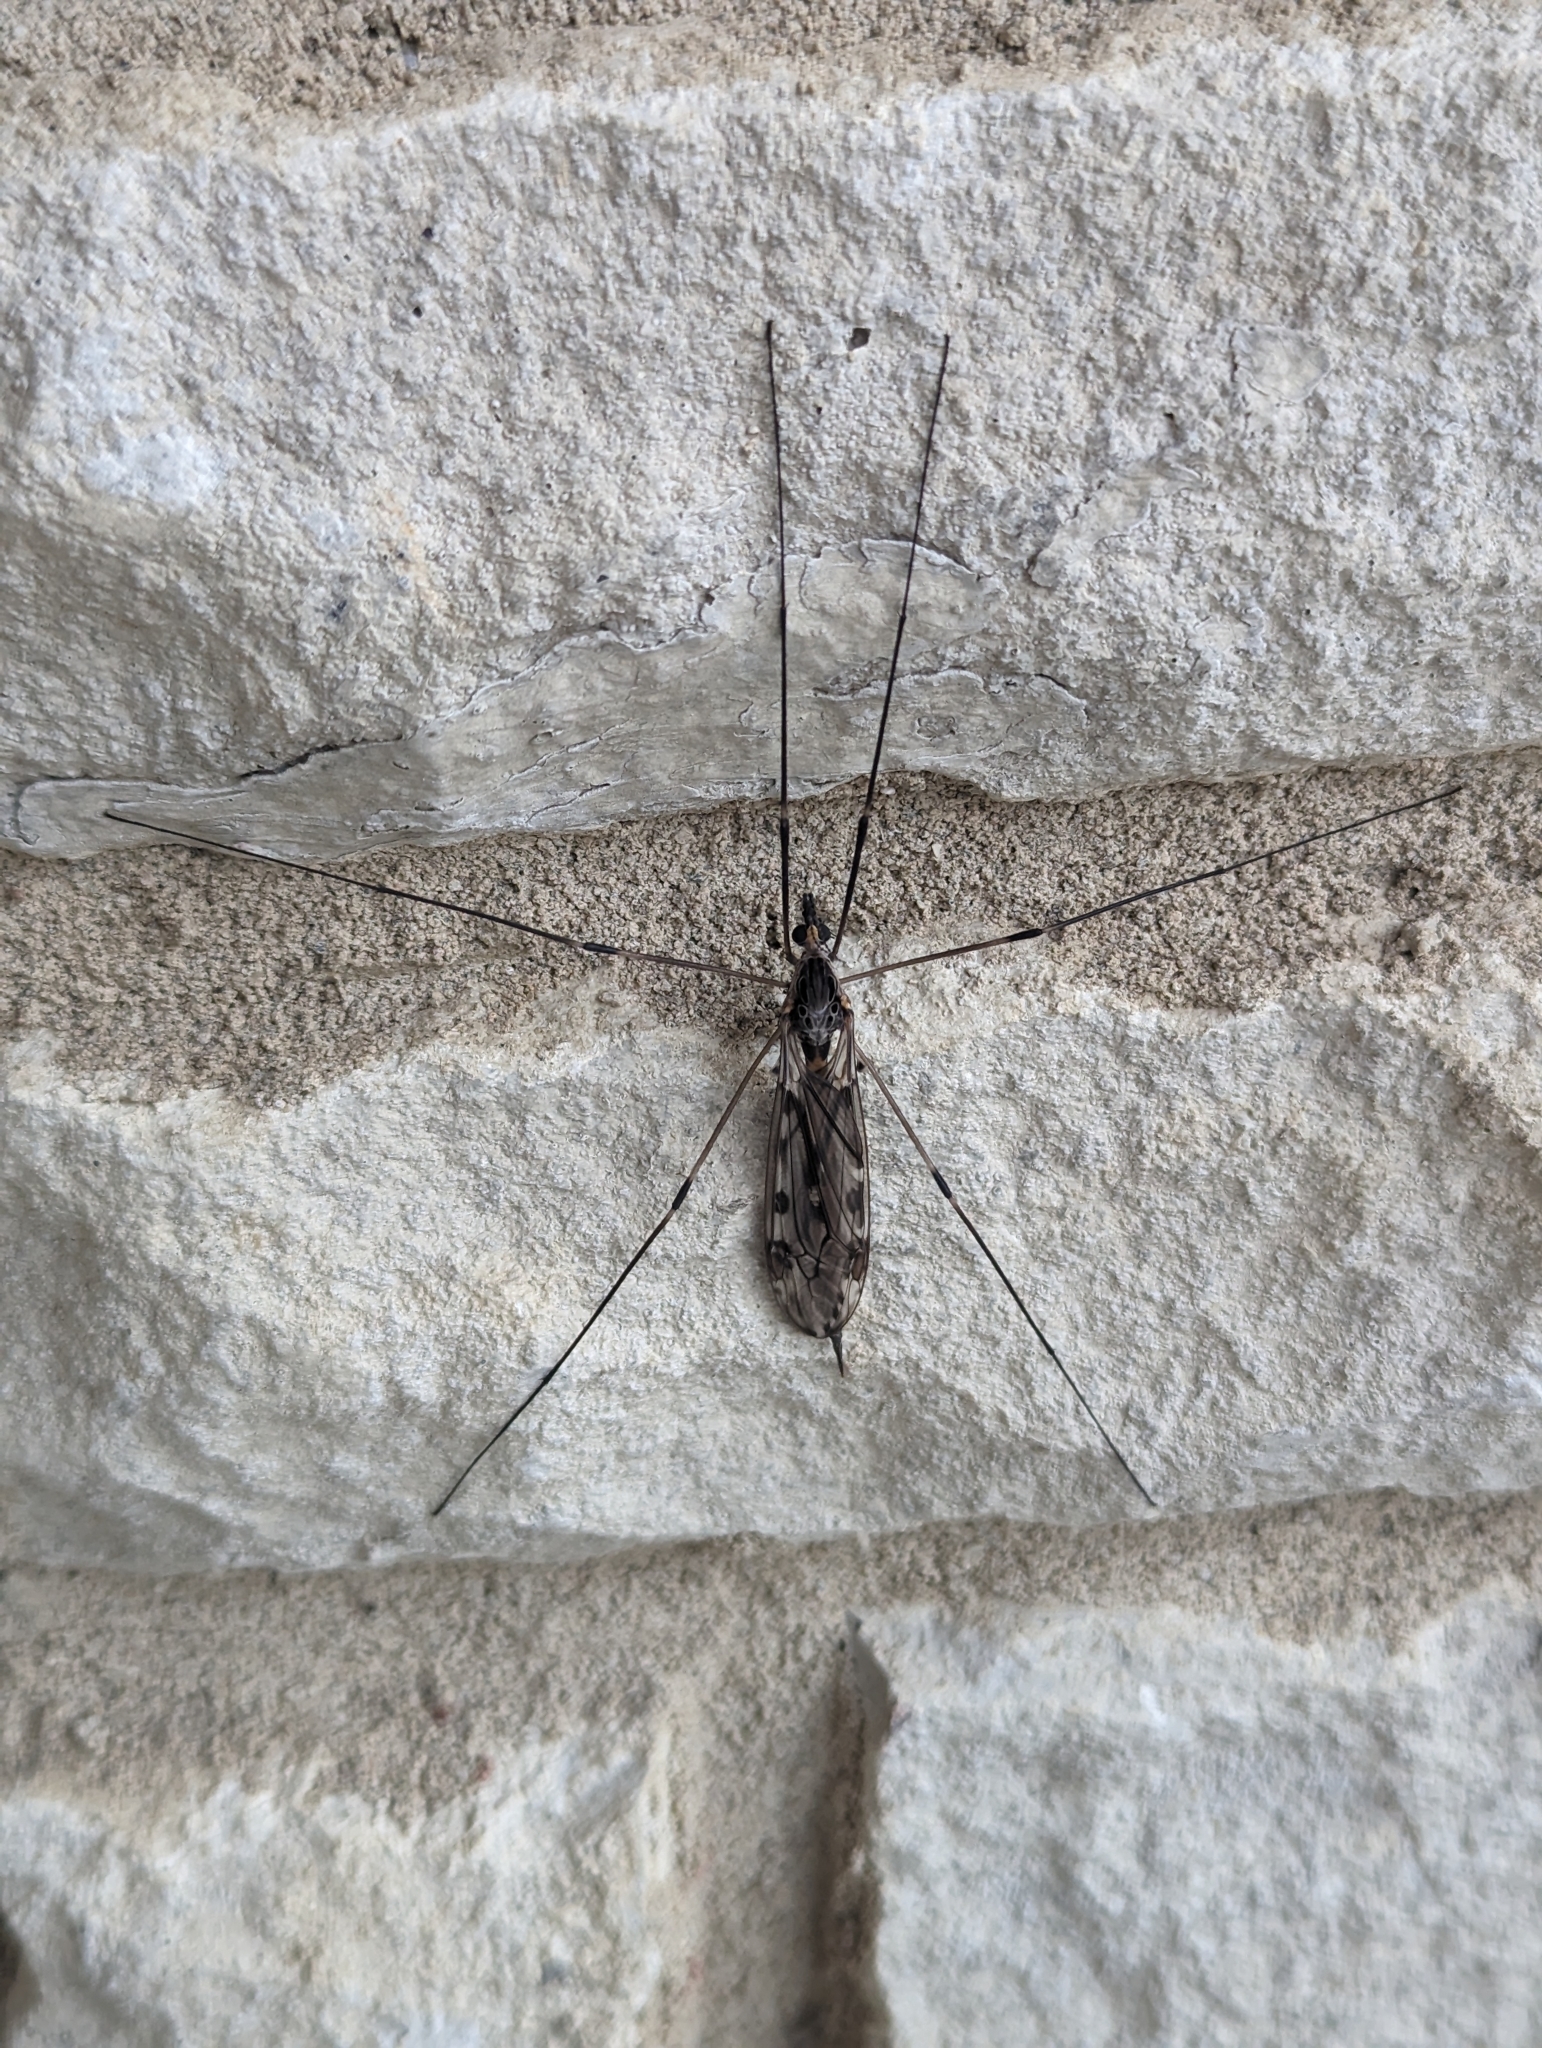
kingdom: Animalia
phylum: Arthropoda
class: Insecta
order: Diptera
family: Tipulidae
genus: Tipula
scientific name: Tipula abdominalis
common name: Giant crane fly
